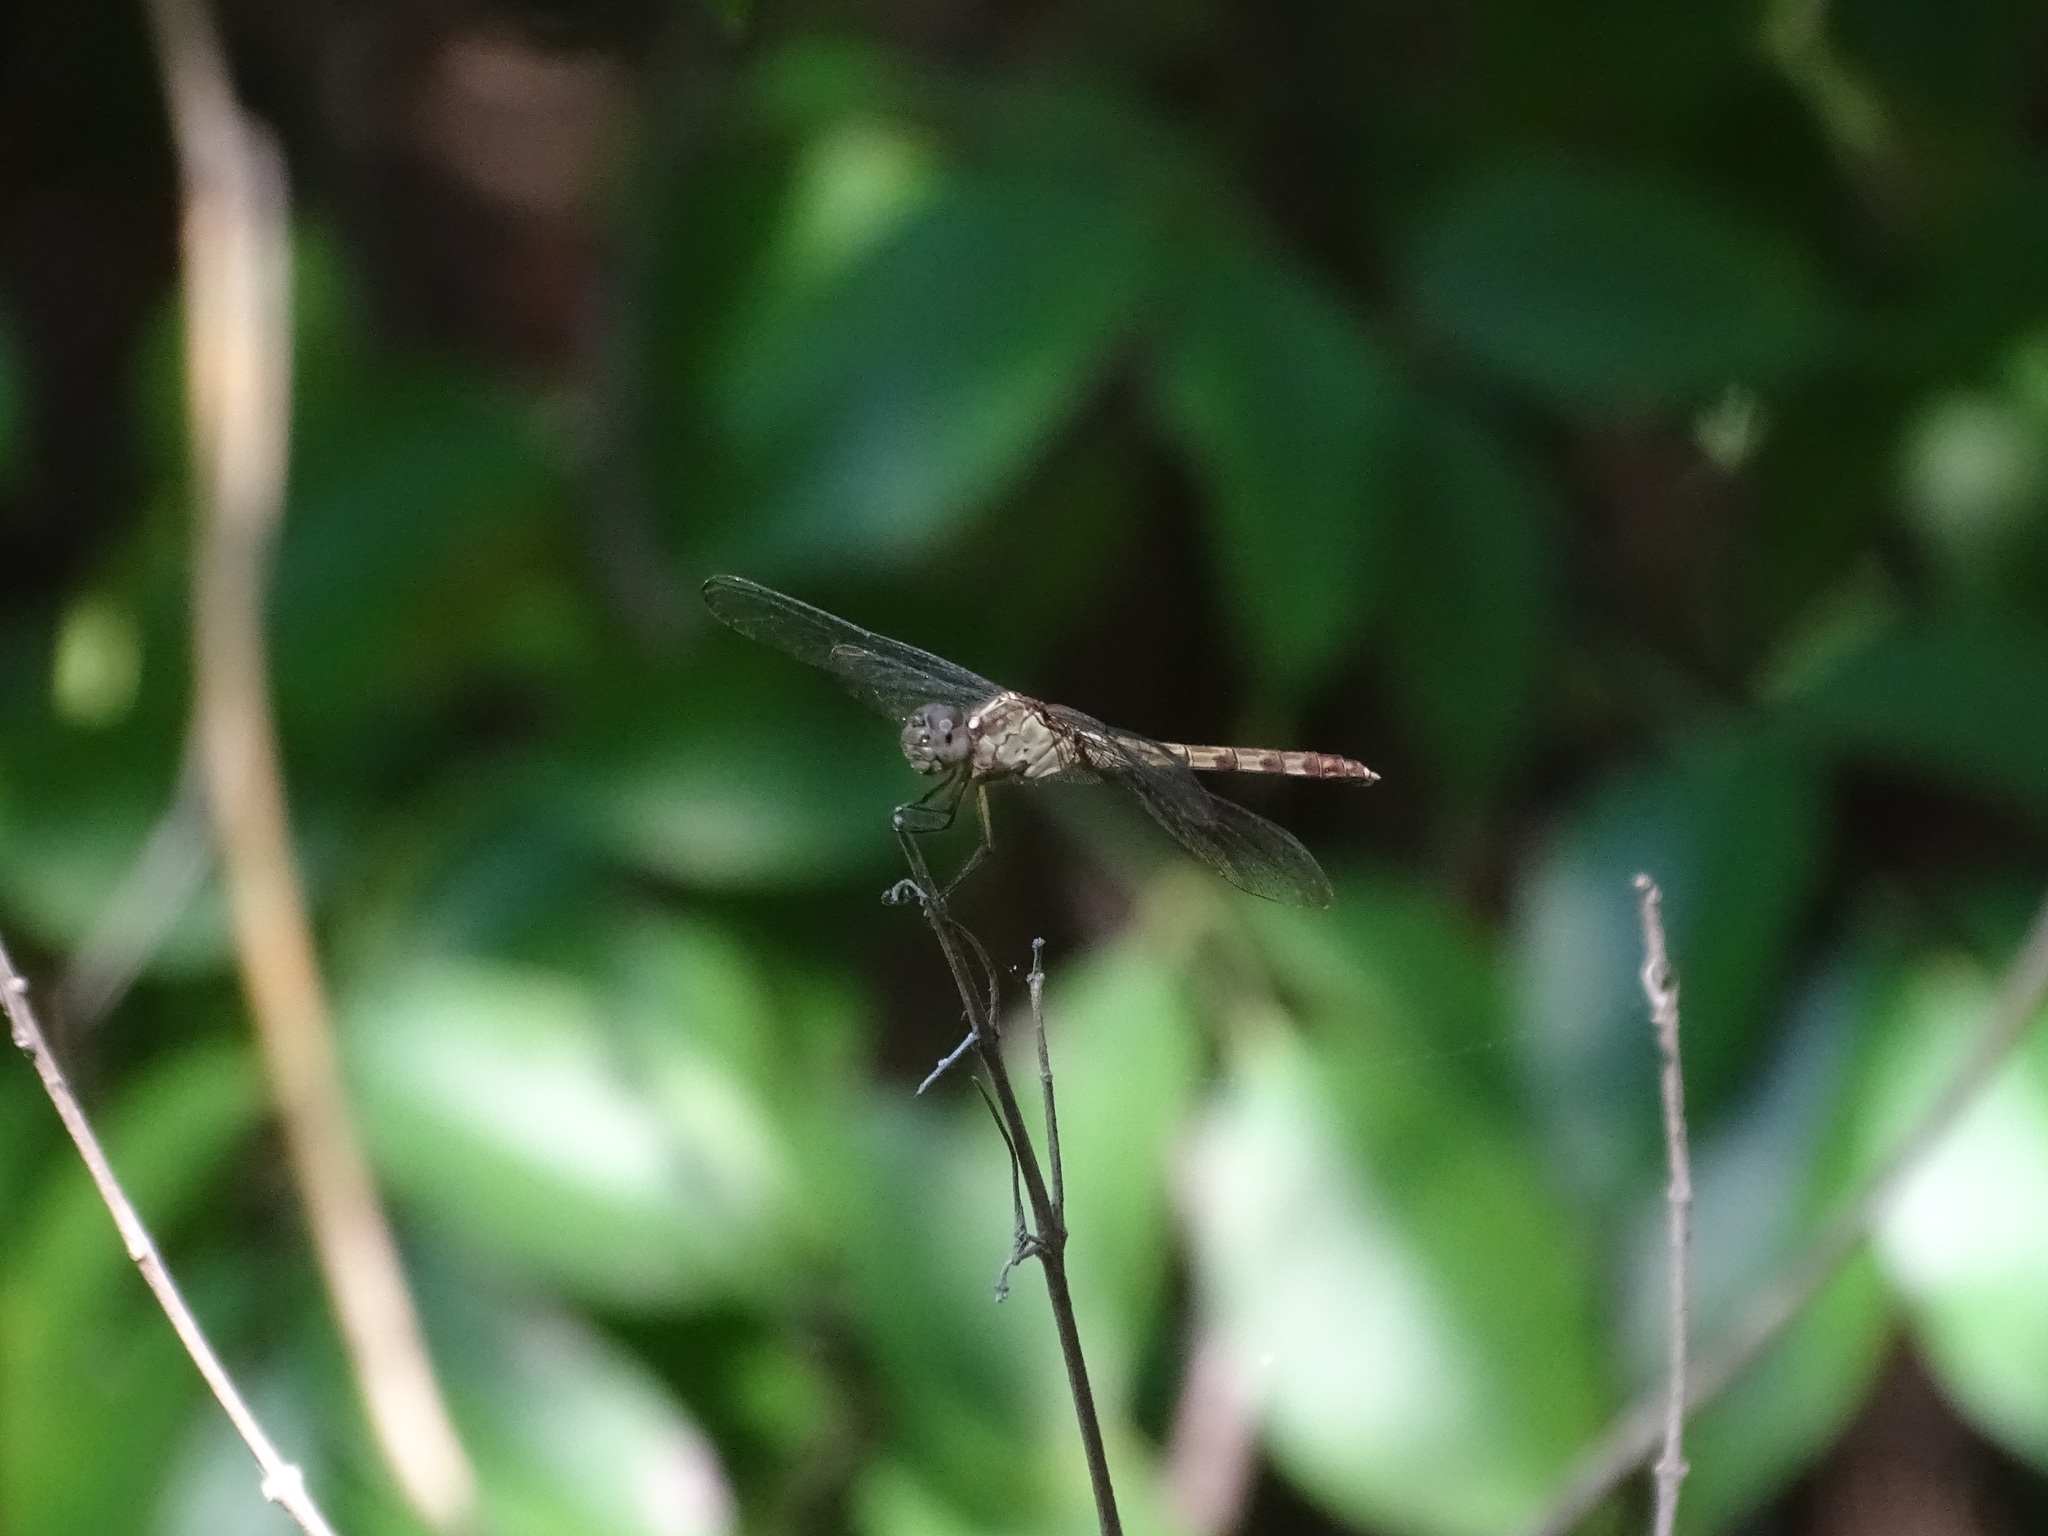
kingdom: Animalia
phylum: Arthropoda
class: Insecta
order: Odonata
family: Libellulidae
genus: Erythrodiplax
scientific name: Erythrodiplax umbrata
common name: Band-winged dragonlet
